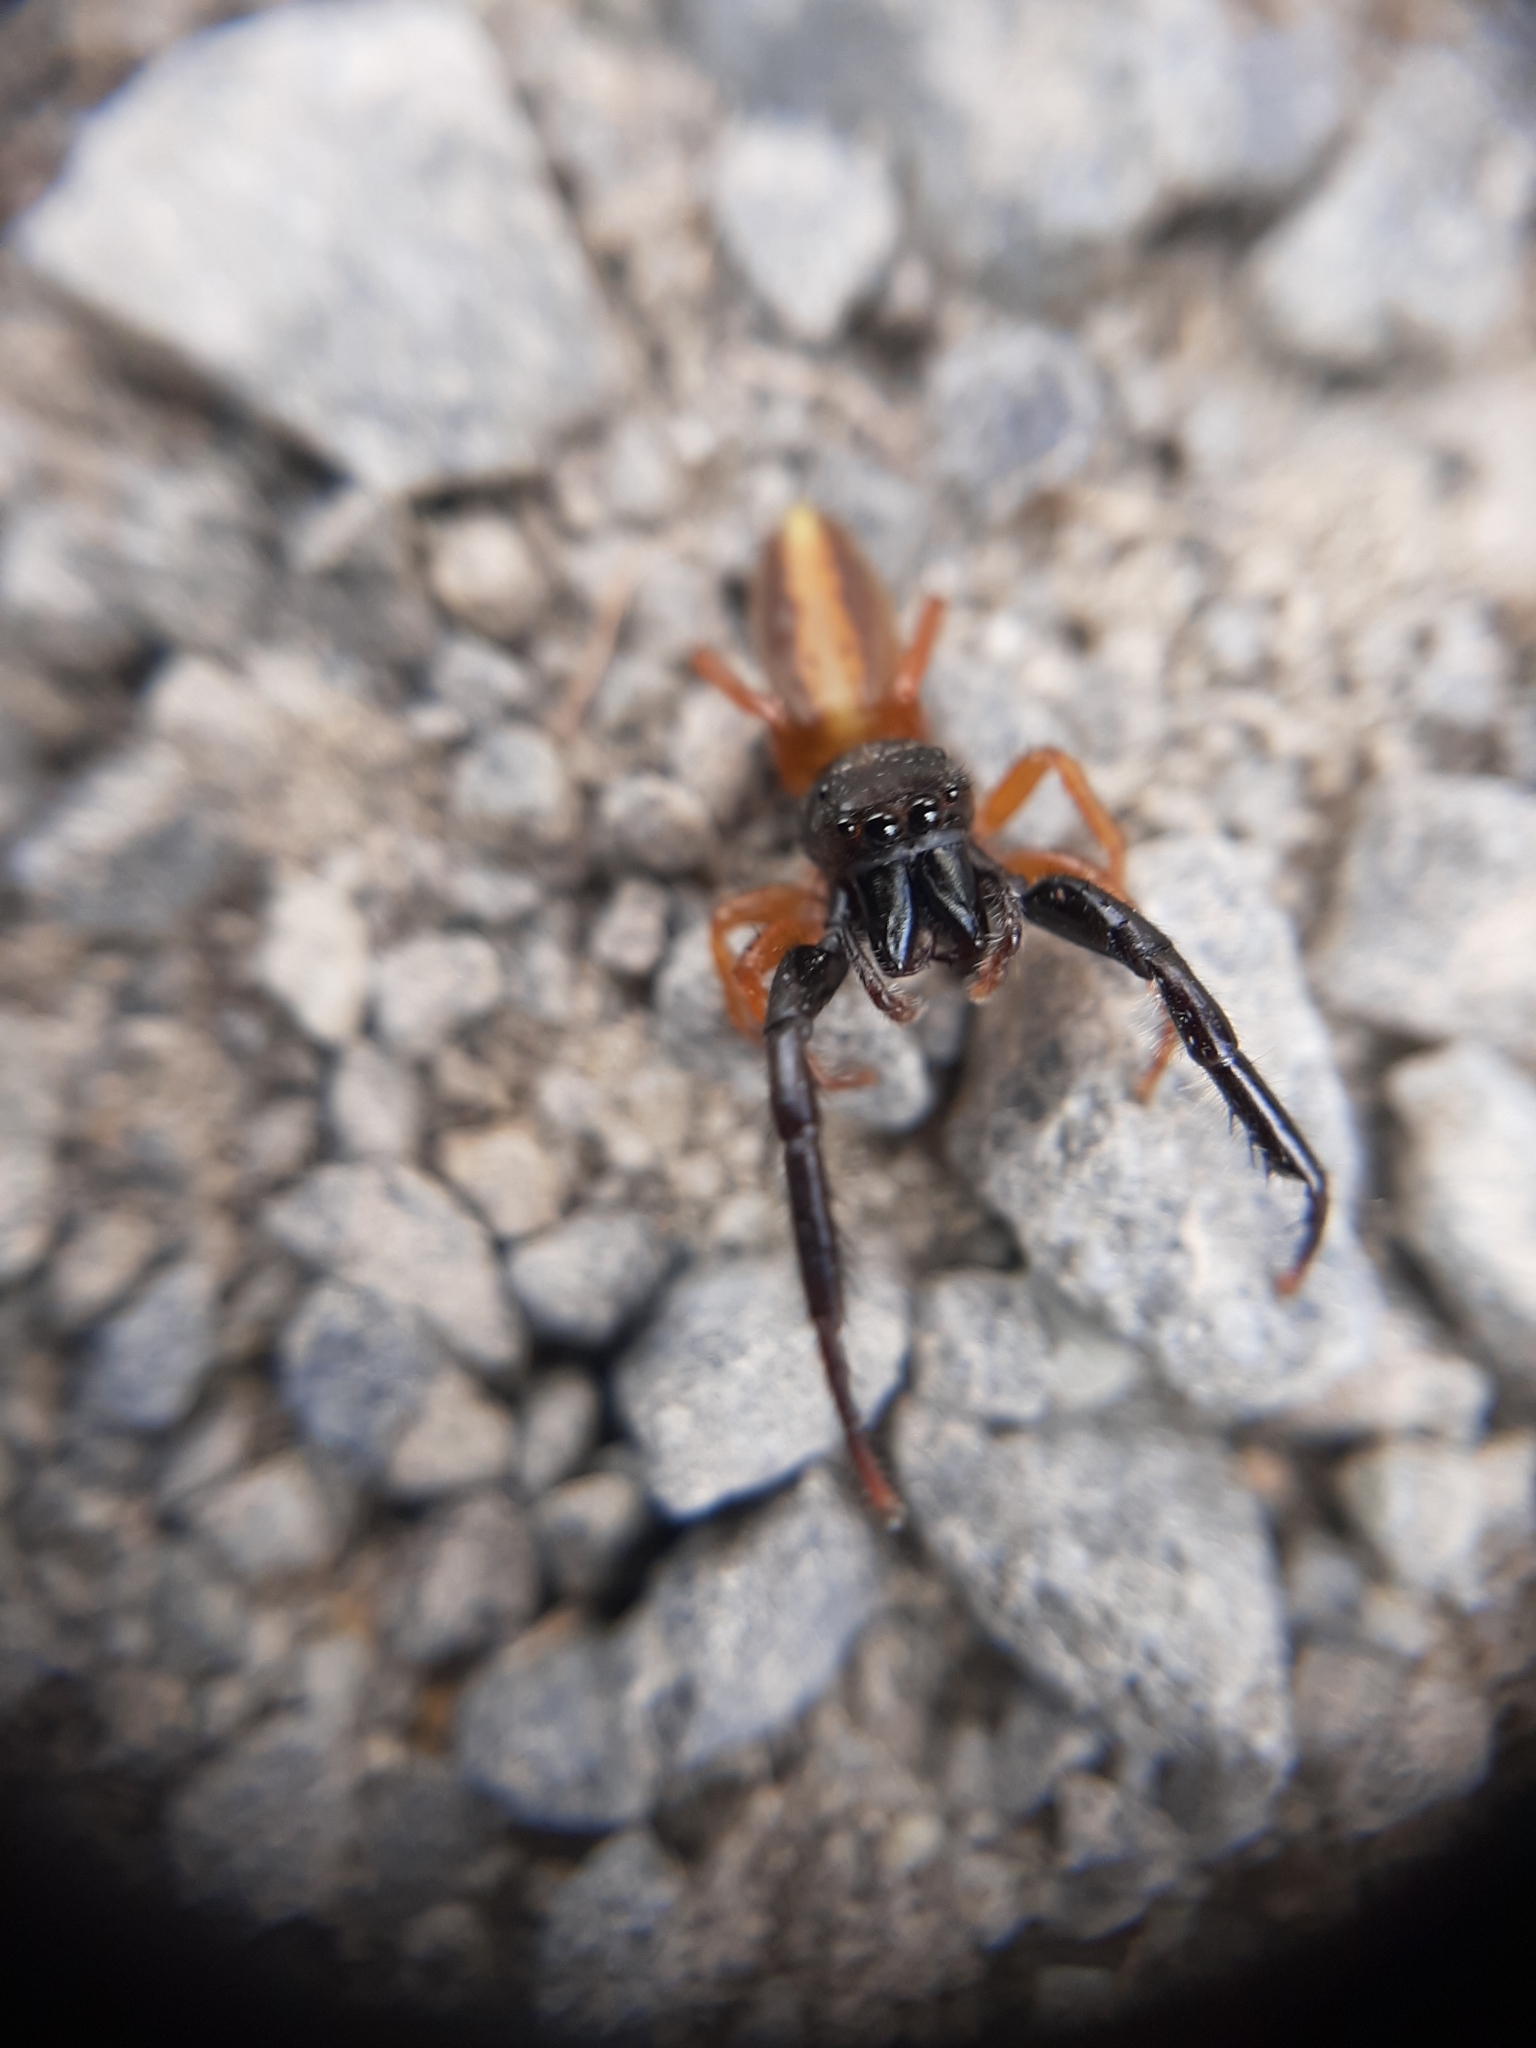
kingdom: Animalia
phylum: Arthropoda
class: Arachnida
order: Araneae
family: Salticidae
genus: Trite
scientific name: Trite planiceps
